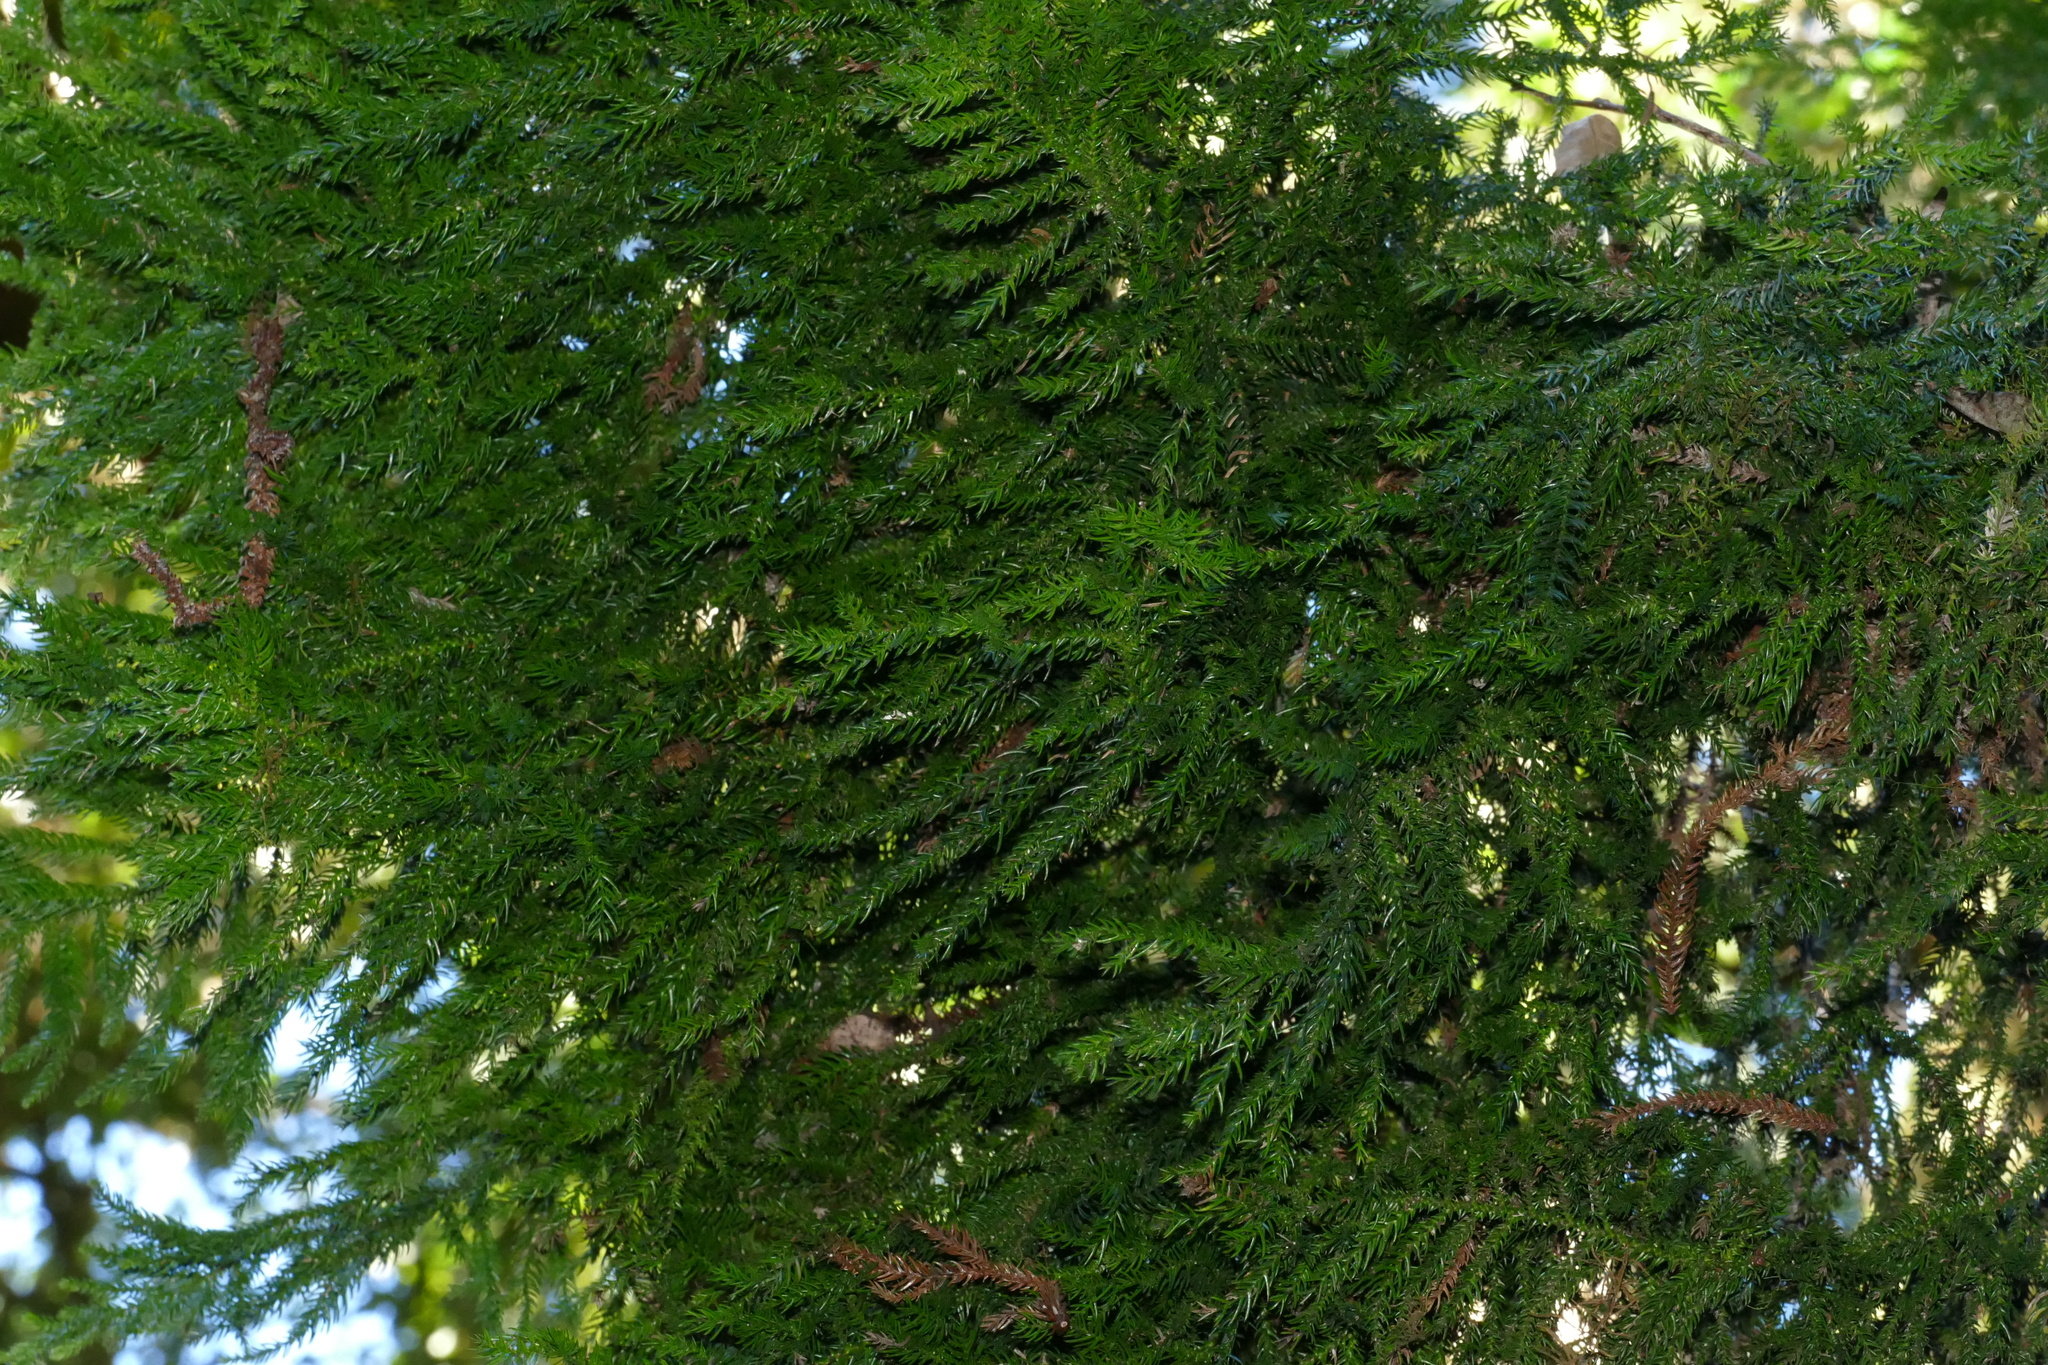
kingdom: Plantae
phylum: Tracheophyta
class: Pinopsida
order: Pinales
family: Araucariaceae
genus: Araucaria
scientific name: Araucaria cunninghamii
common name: Colonial pine
